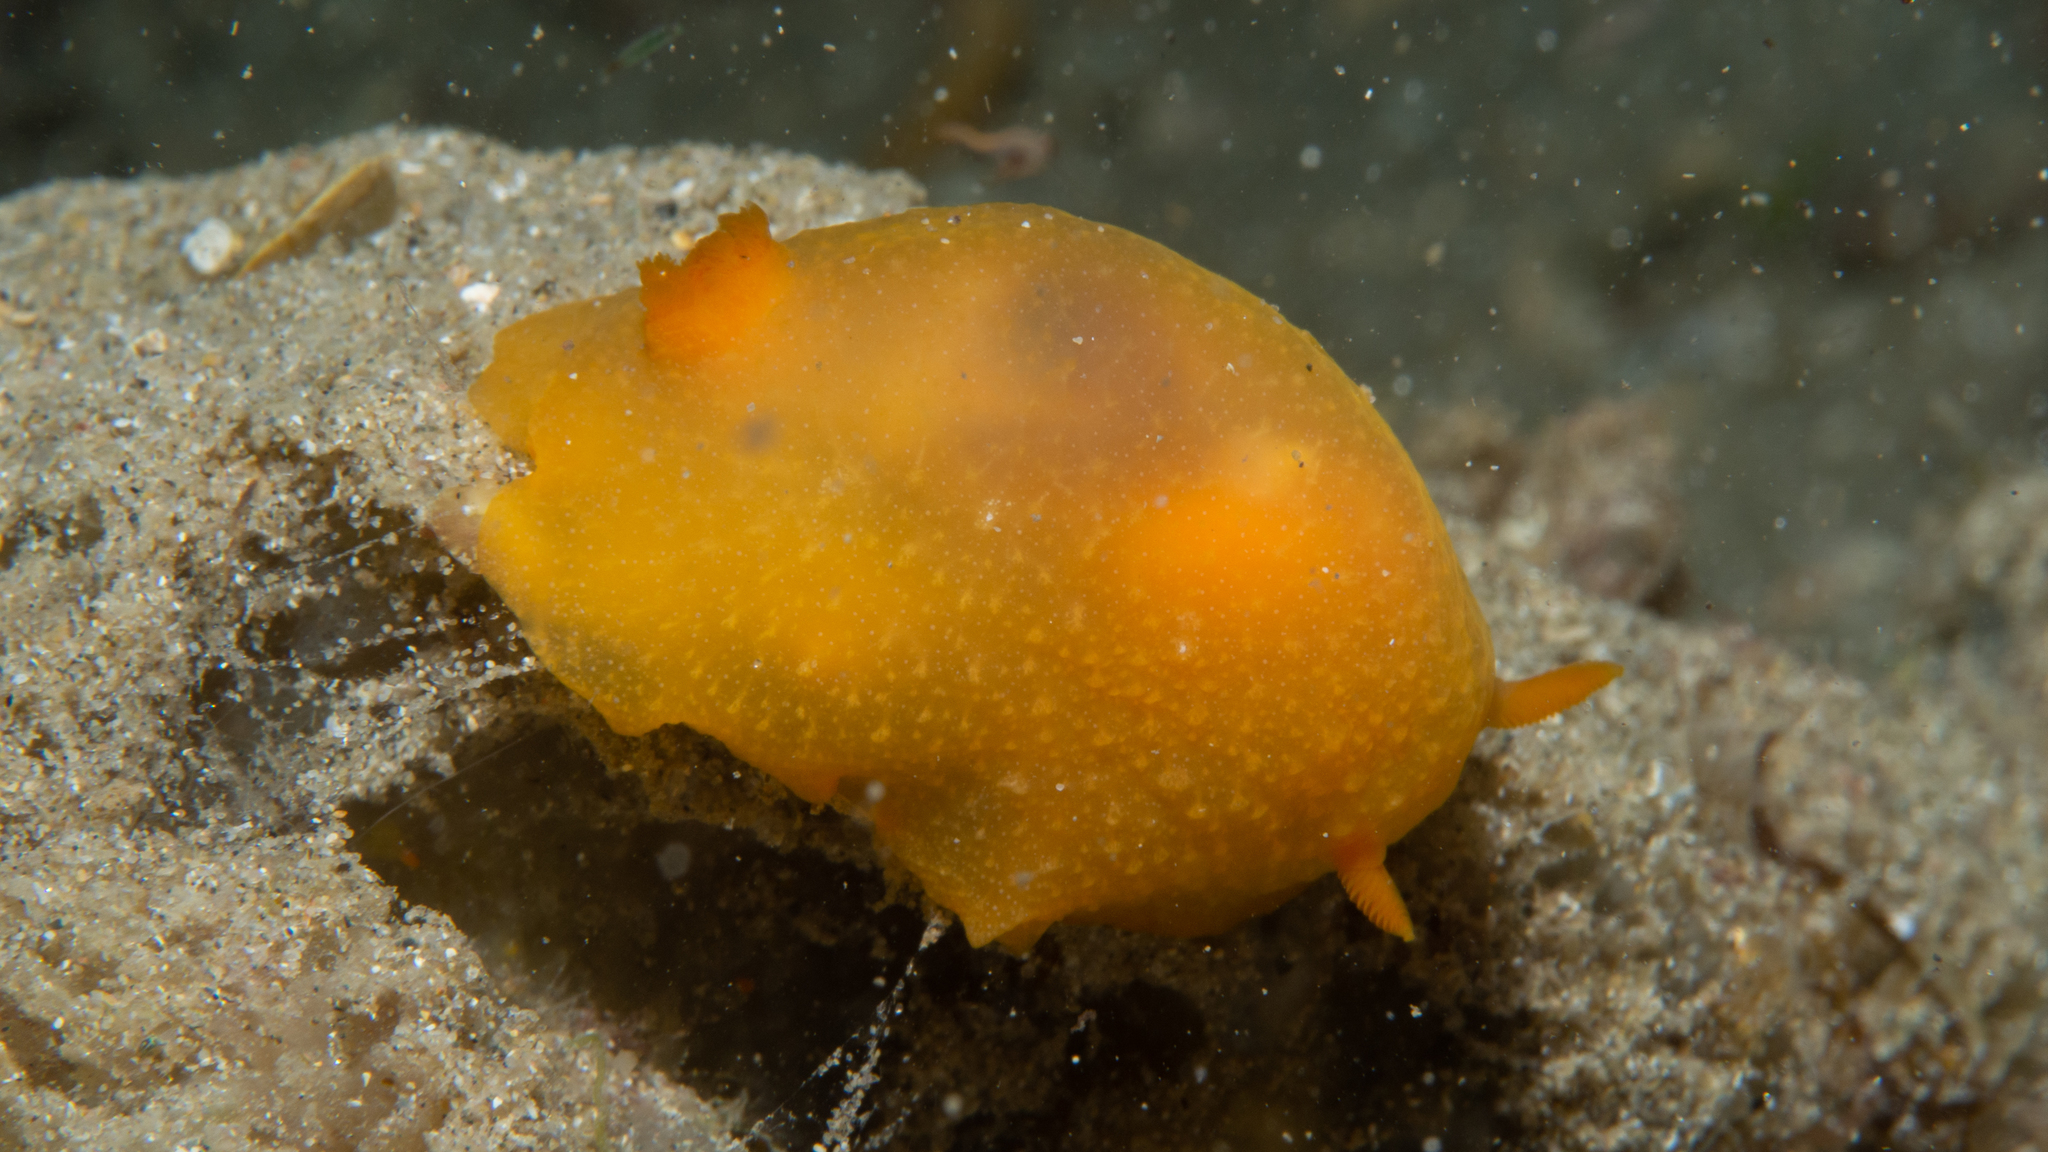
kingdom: Animalia
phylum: Mollusca
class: Gastropoda
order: Nudibranchia
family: Dendrodorididae
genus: Doriopsilla
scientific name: Doriopsilla carneola
